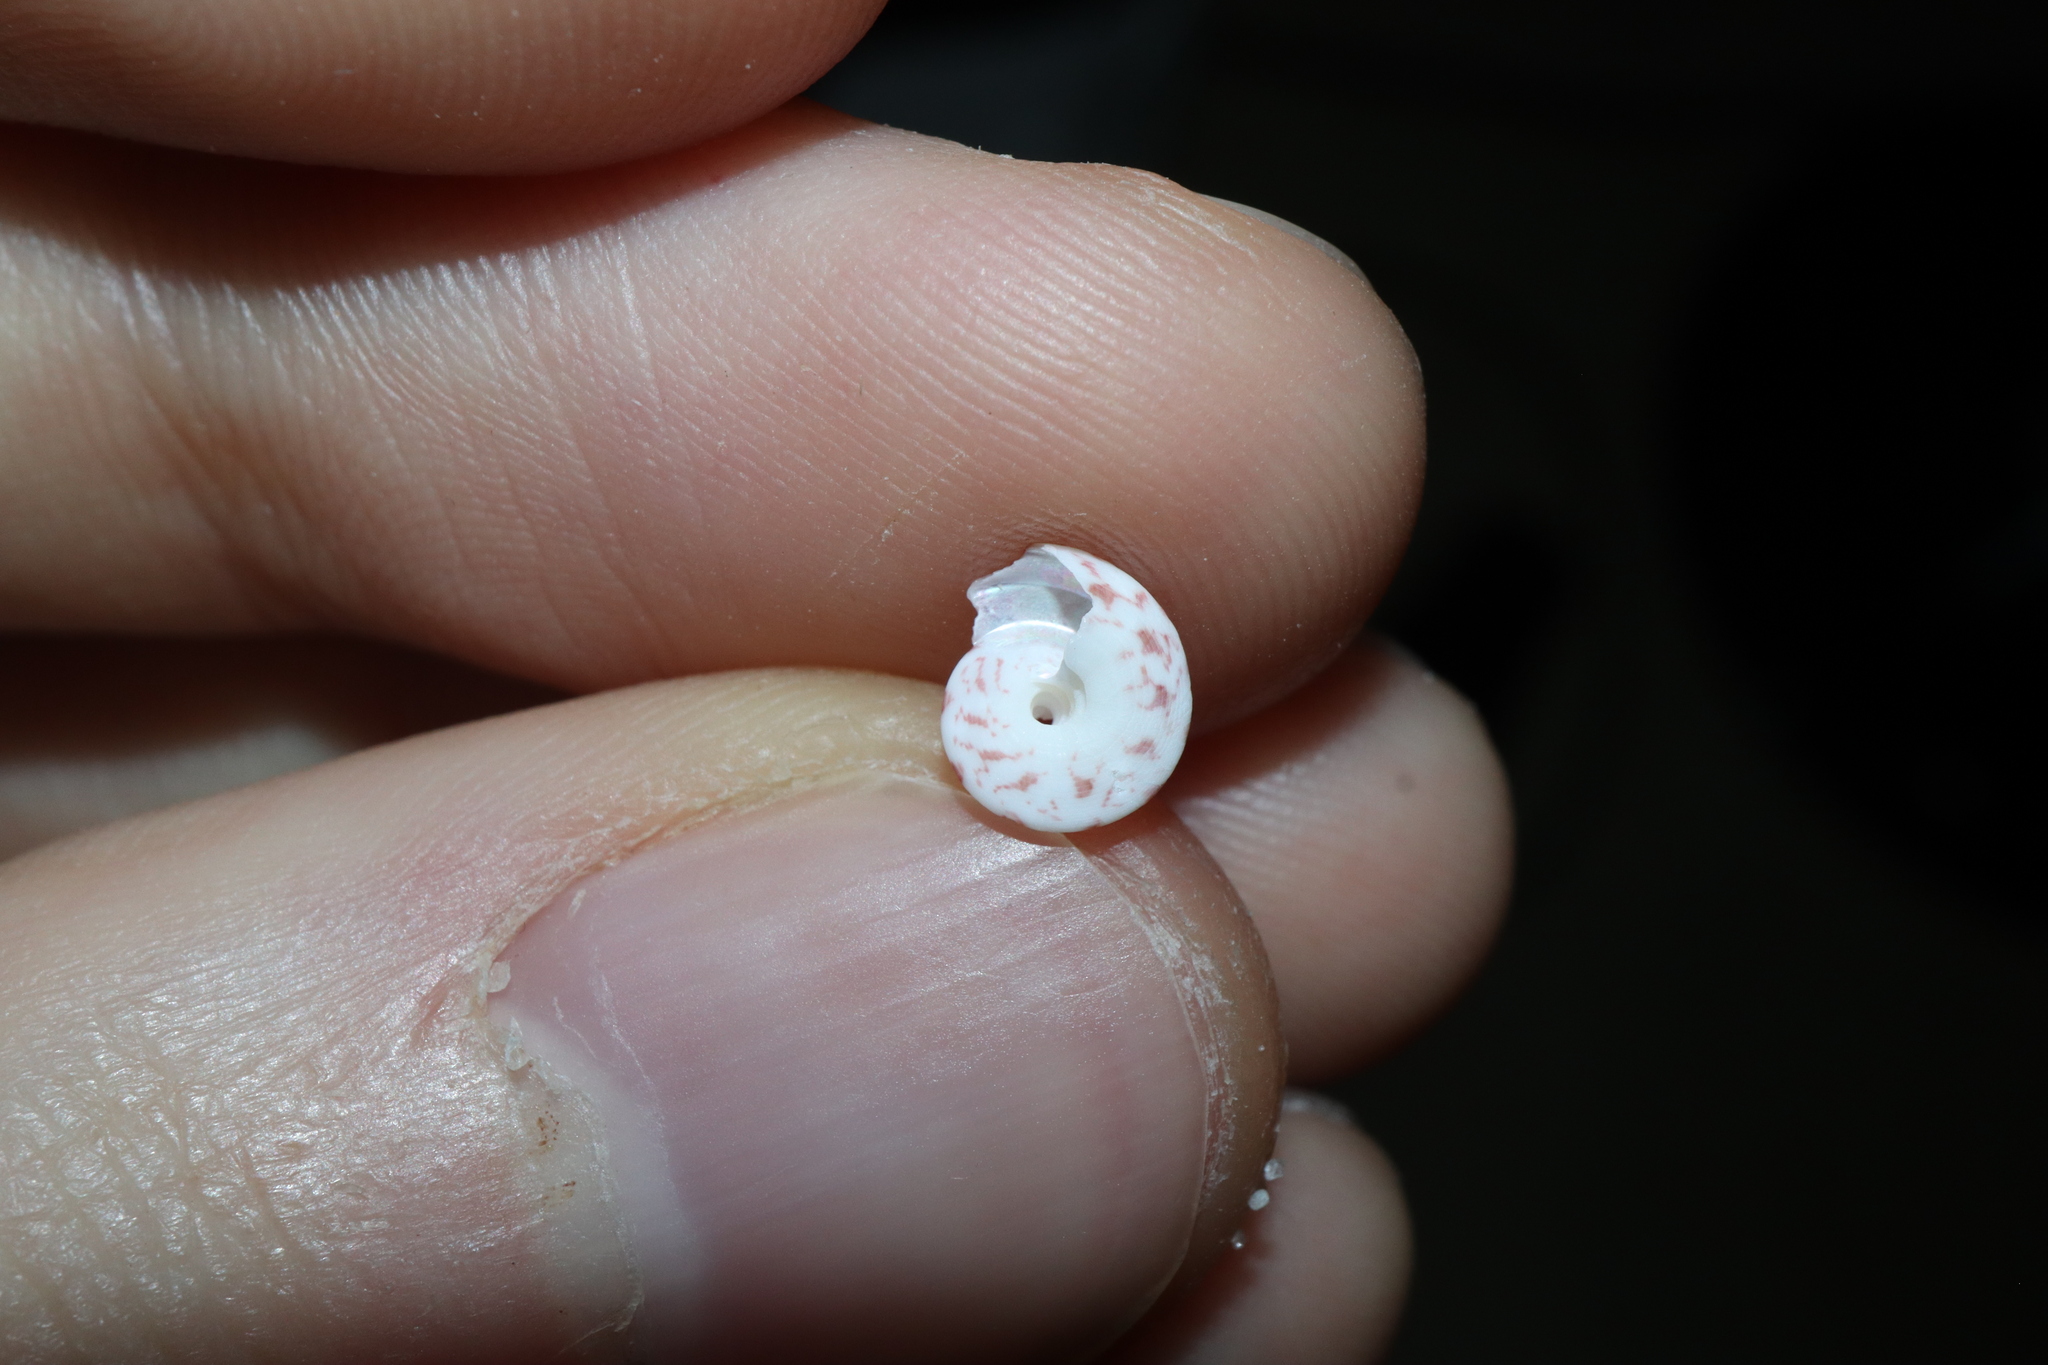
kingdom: Animalia
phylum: Mollusca
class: Gastropoda
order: Trochida
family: Trochidae
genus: Notogibbula
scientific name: Notogibbula preissiana
